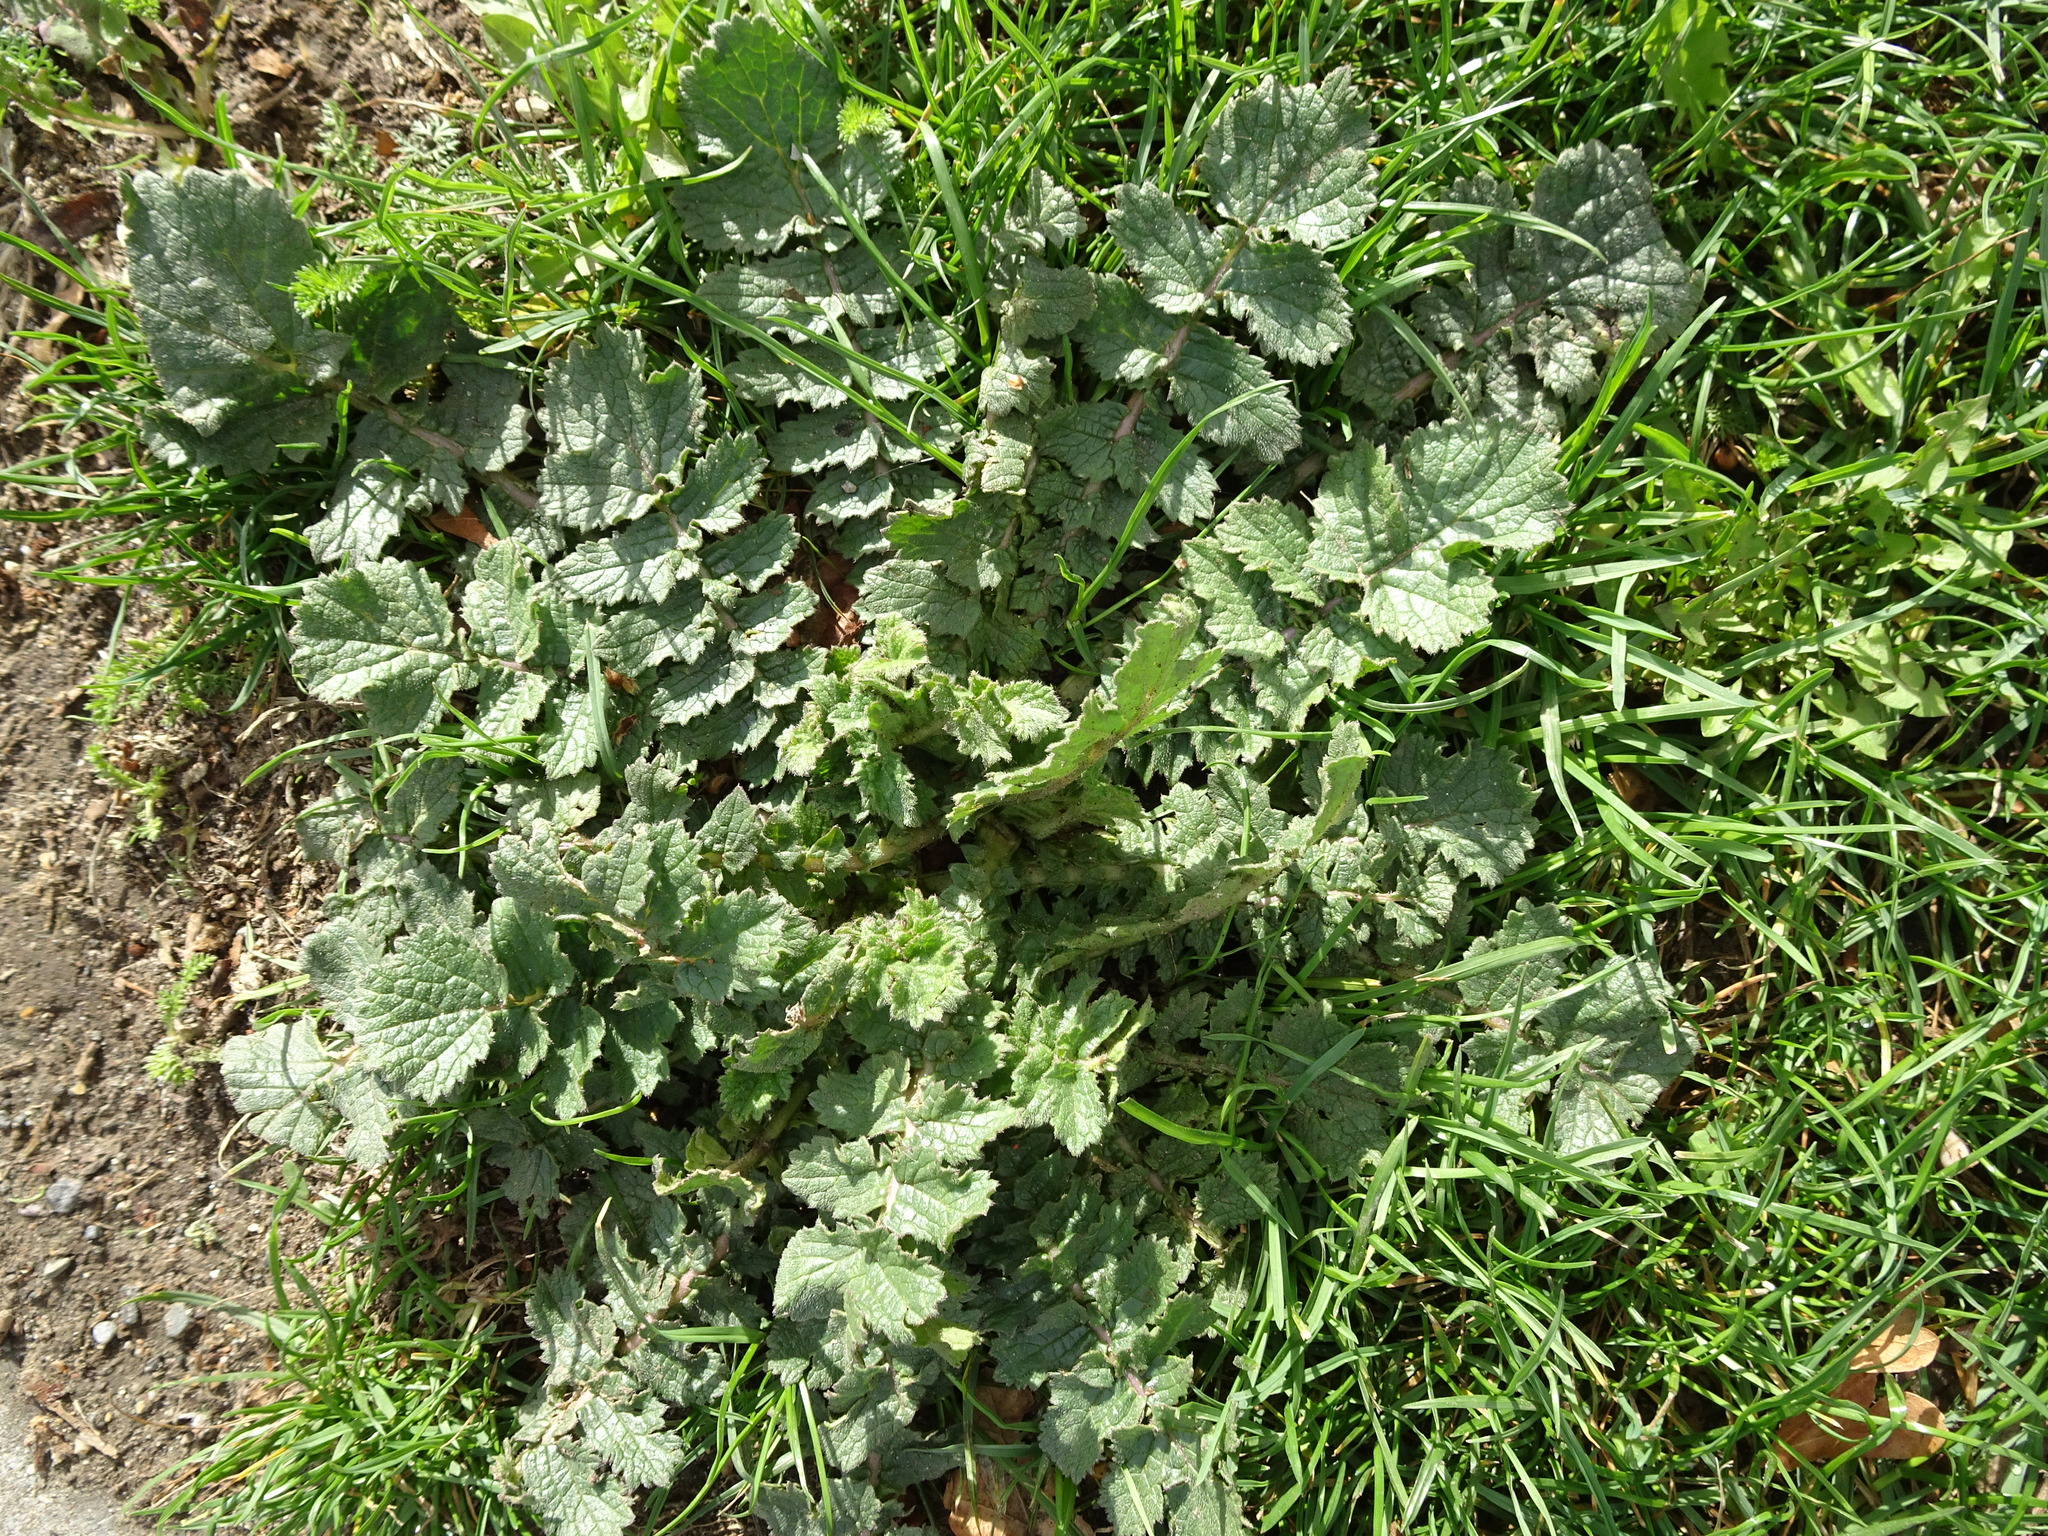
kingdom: Plantae
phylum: Tracheophyta
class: Magnoliopsida
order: Brassicales
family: Brassicaceae
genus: Raphanus
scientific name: Raphanus raphanistrum
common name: Wild radish
